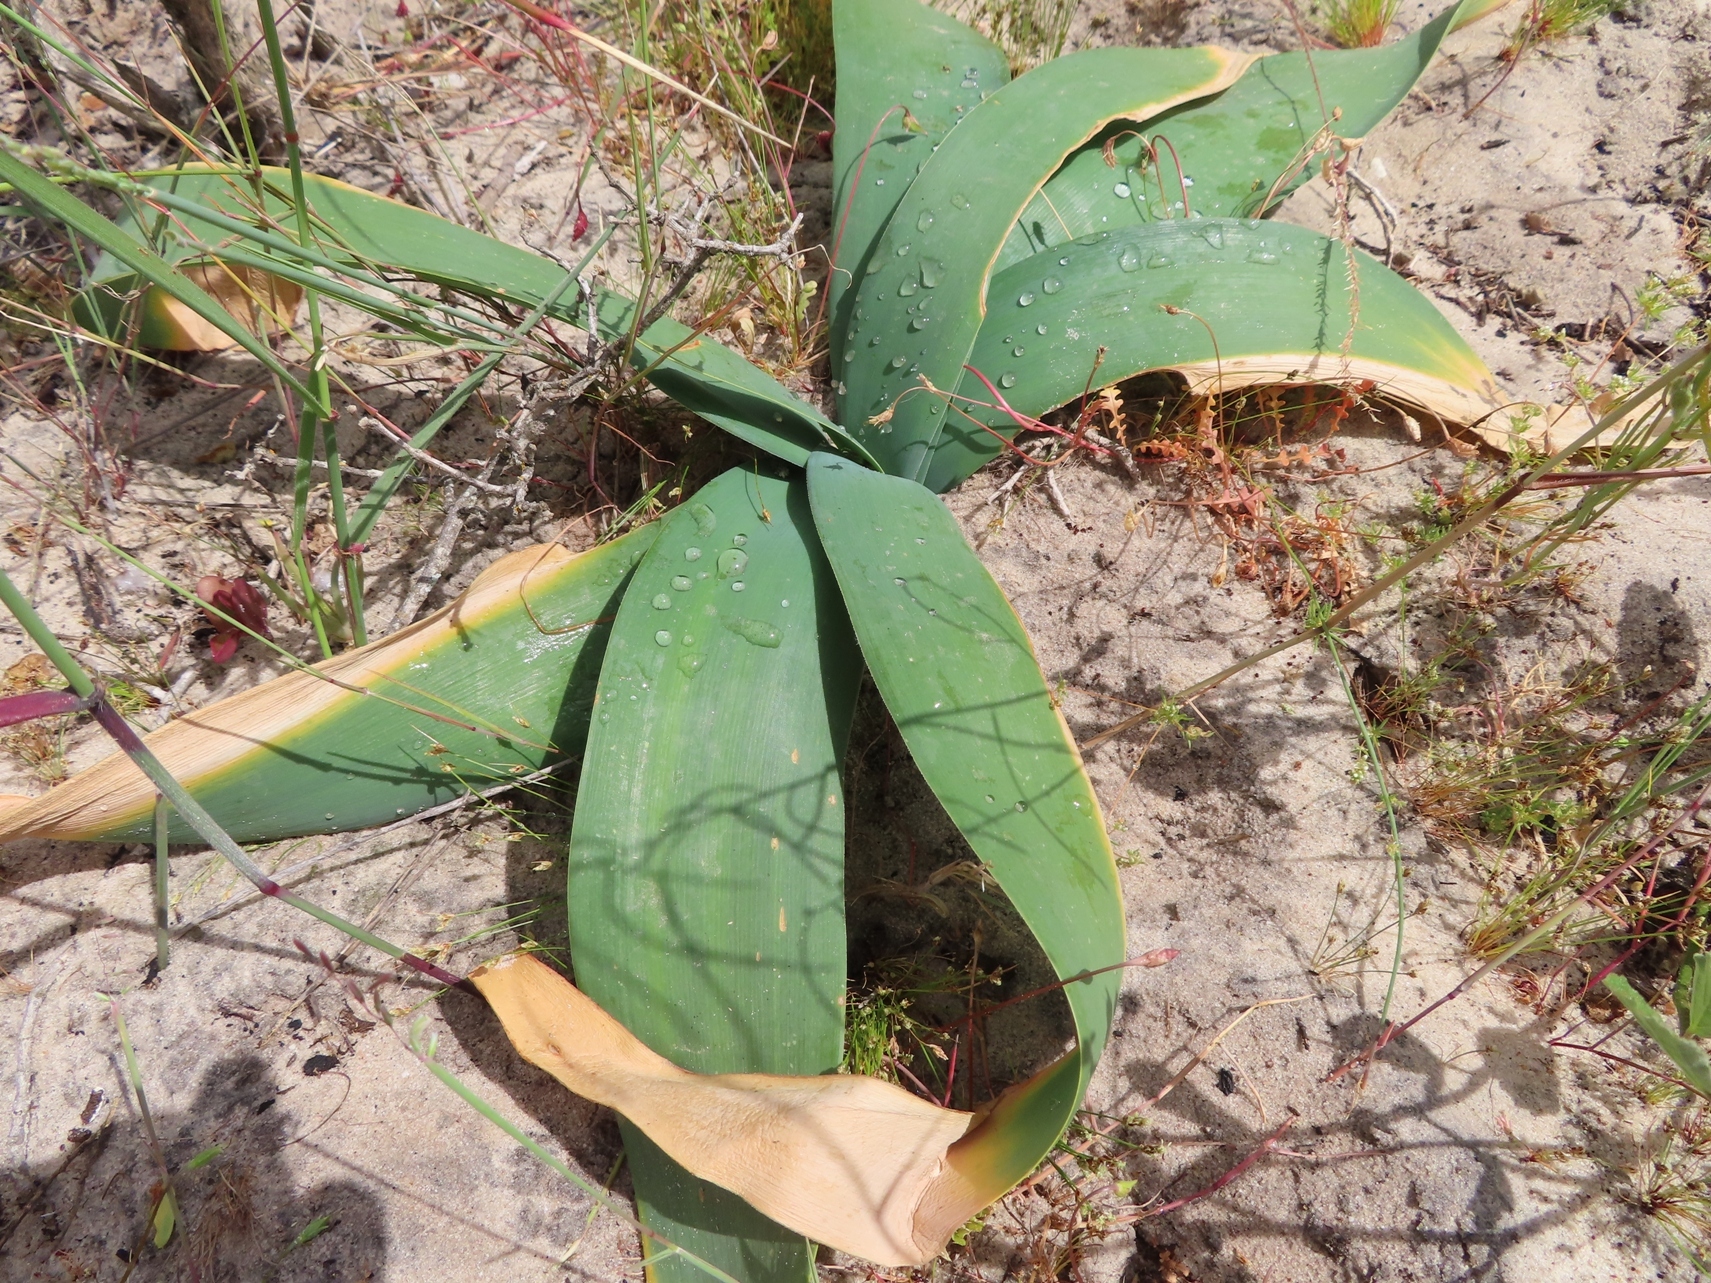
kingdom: Plantae
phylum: Tracheophyta
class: Liliopsida
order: Asparagales
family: Amaryllidaceae
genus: Ammocharis
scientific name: Ammocharis longifolia
